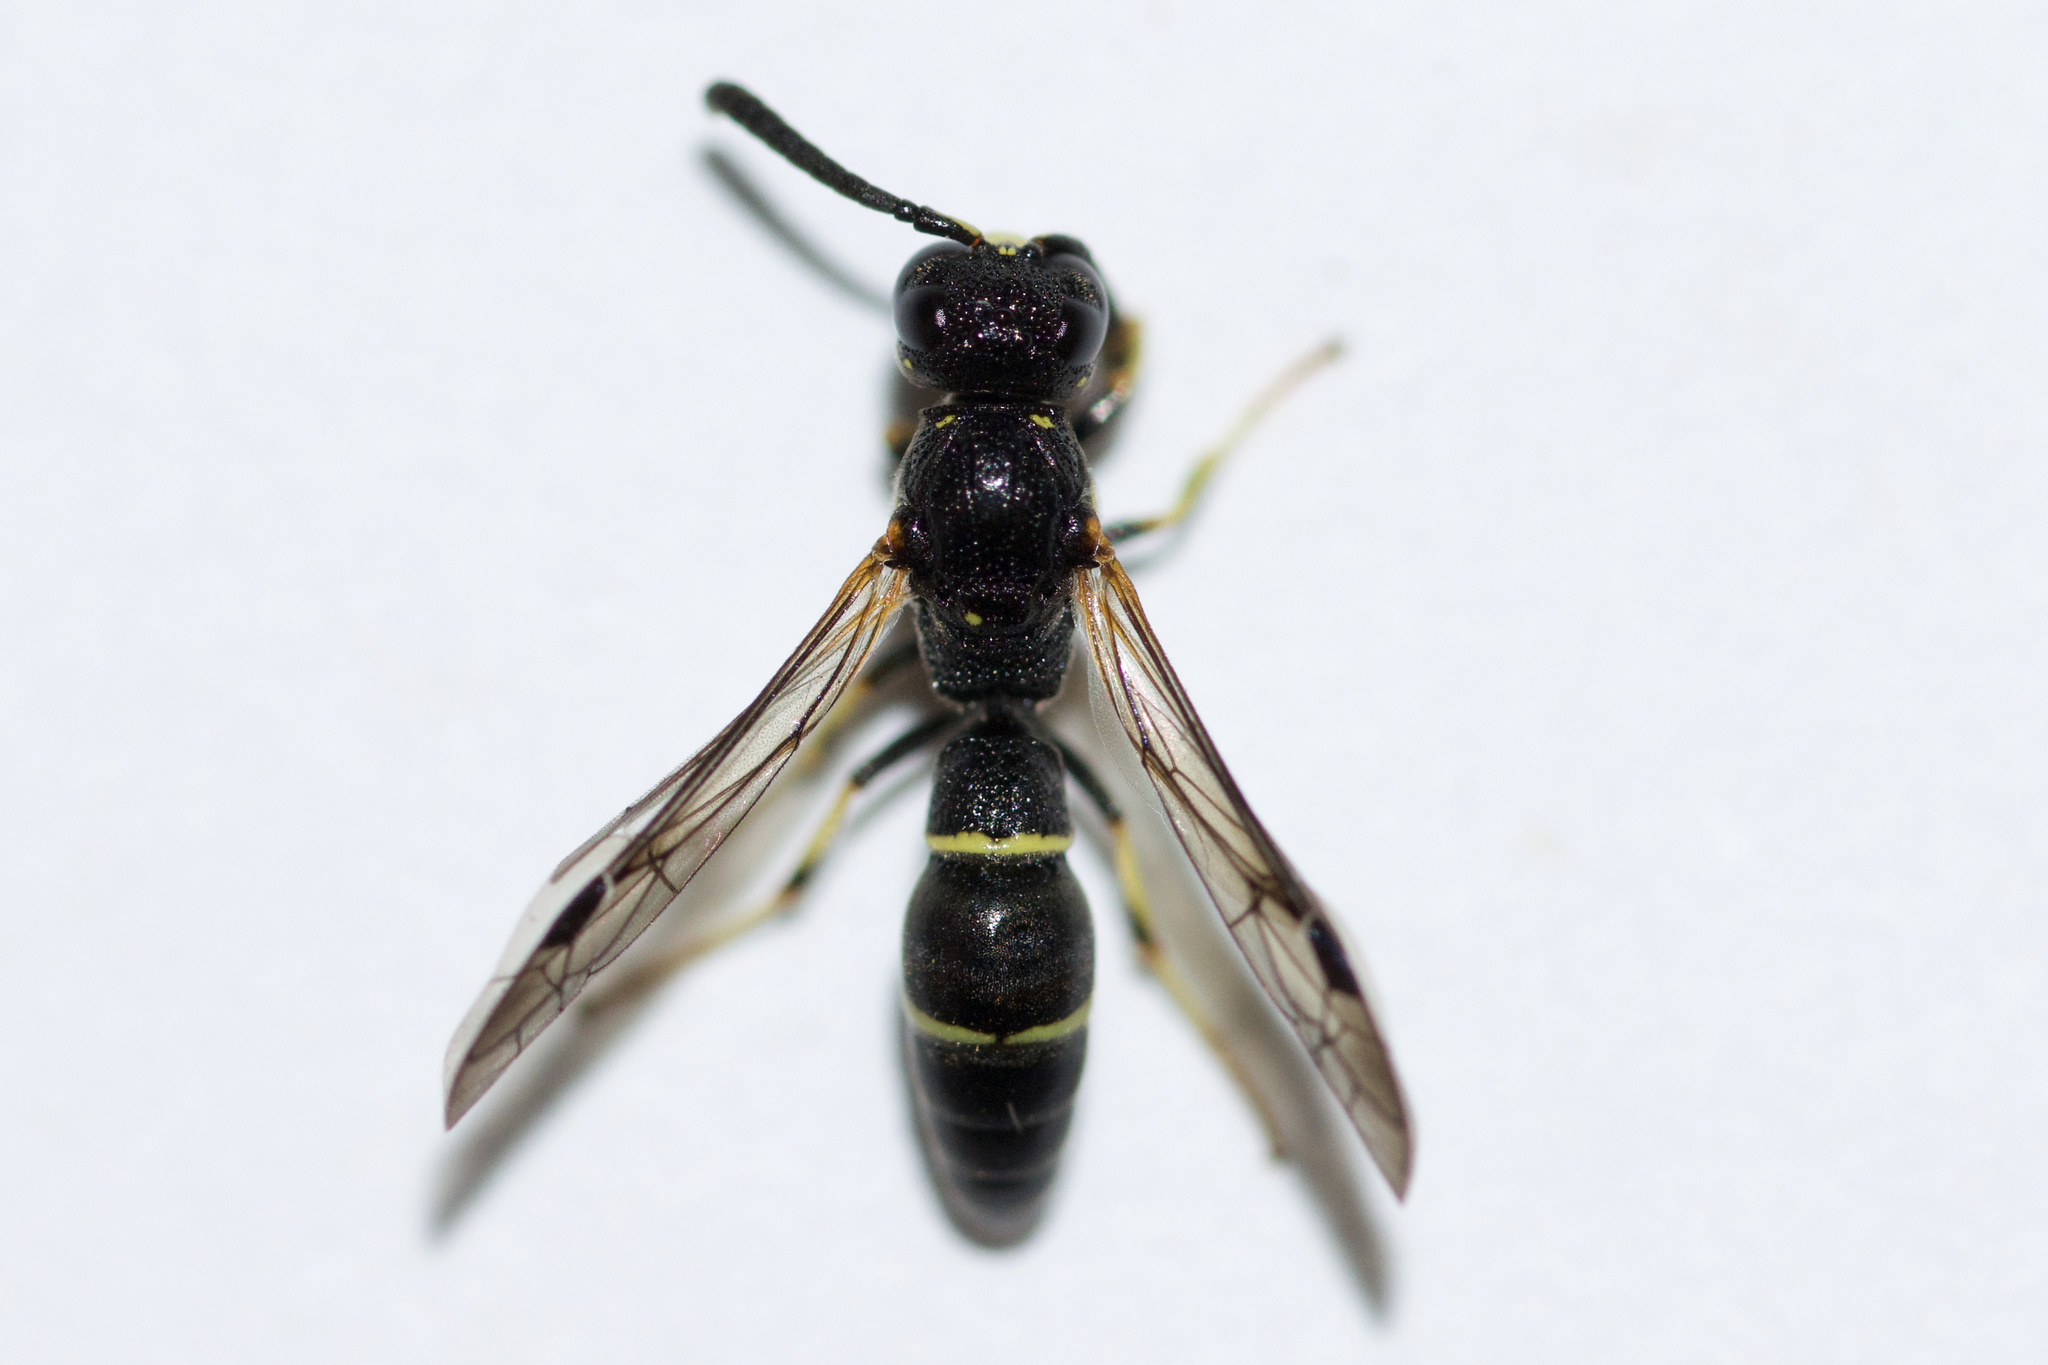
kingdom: Animalia
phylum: Arthropoda
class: Insecta
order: Hymenoptera
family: Eumenidae
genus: Symmorphus
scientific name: Symmorphus canadensis
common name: Canadian potter wasp
